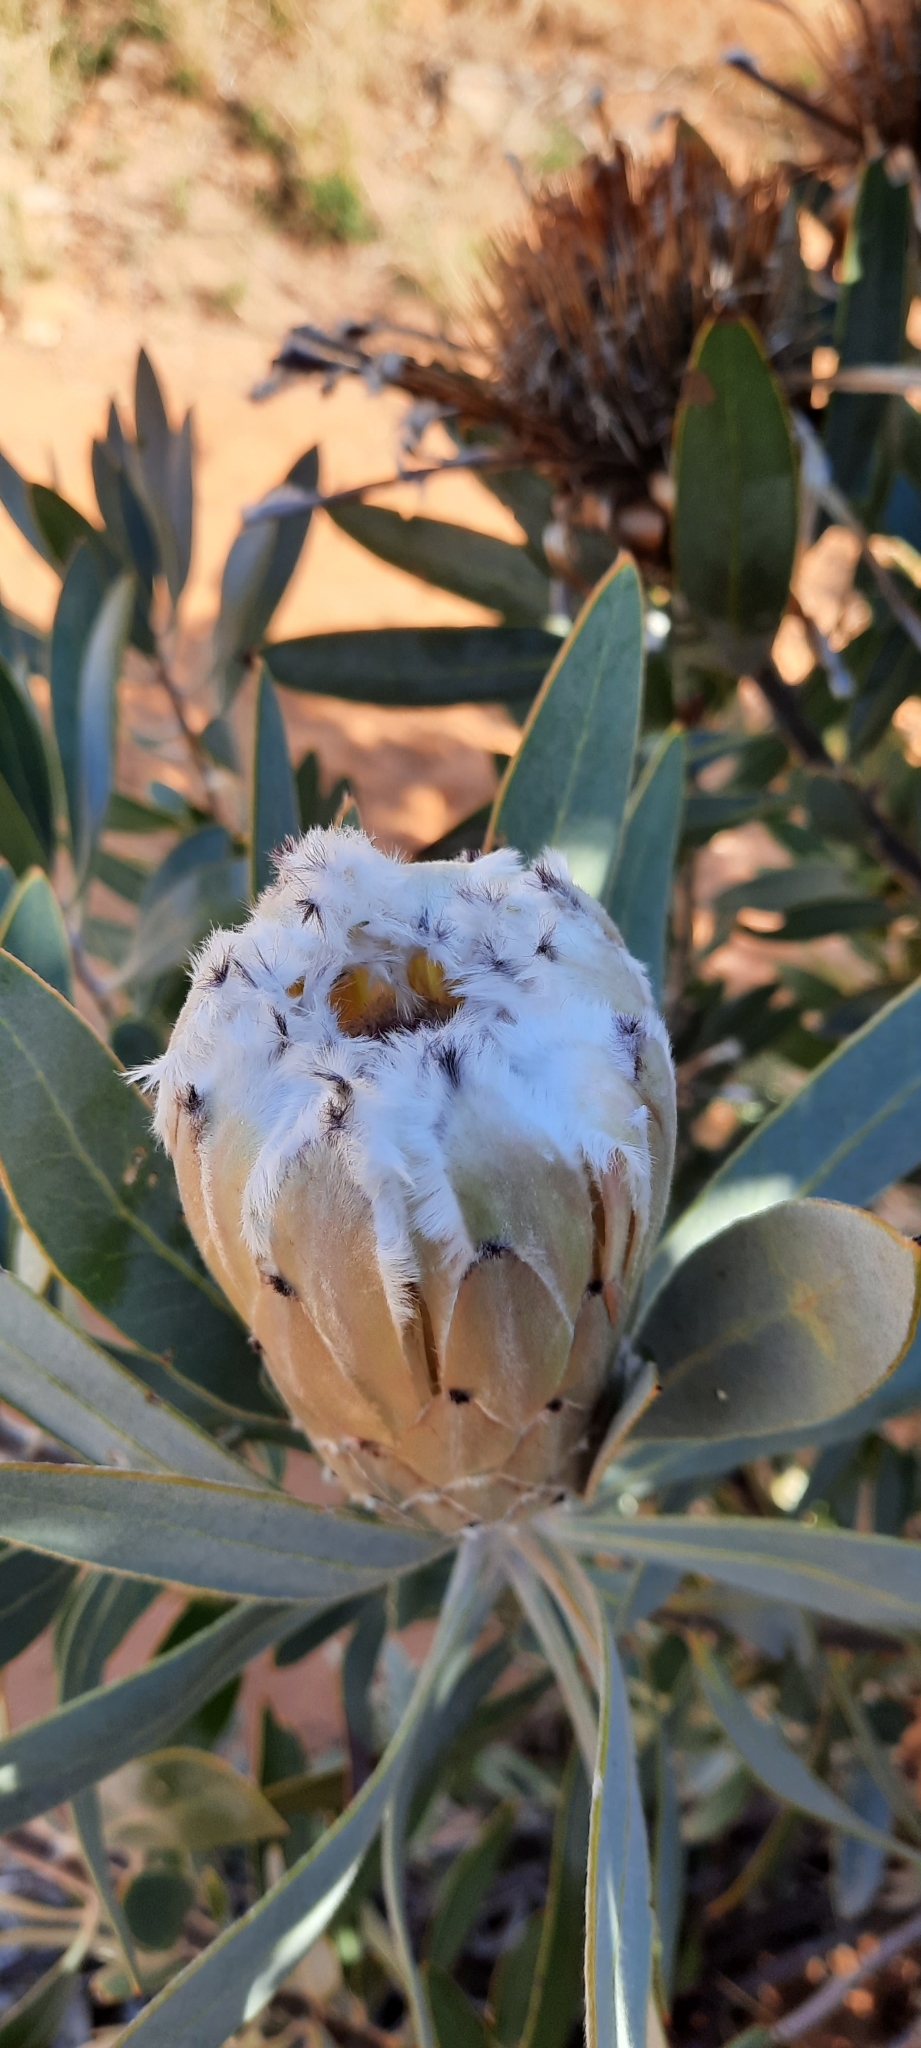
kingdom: Plantae
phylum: Tracheophyta
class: Magnoliopsida
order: Proteales
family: Proteaceae
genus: Protea
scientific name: Protea laurifolia
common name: Grey-leaf sugarbsh
